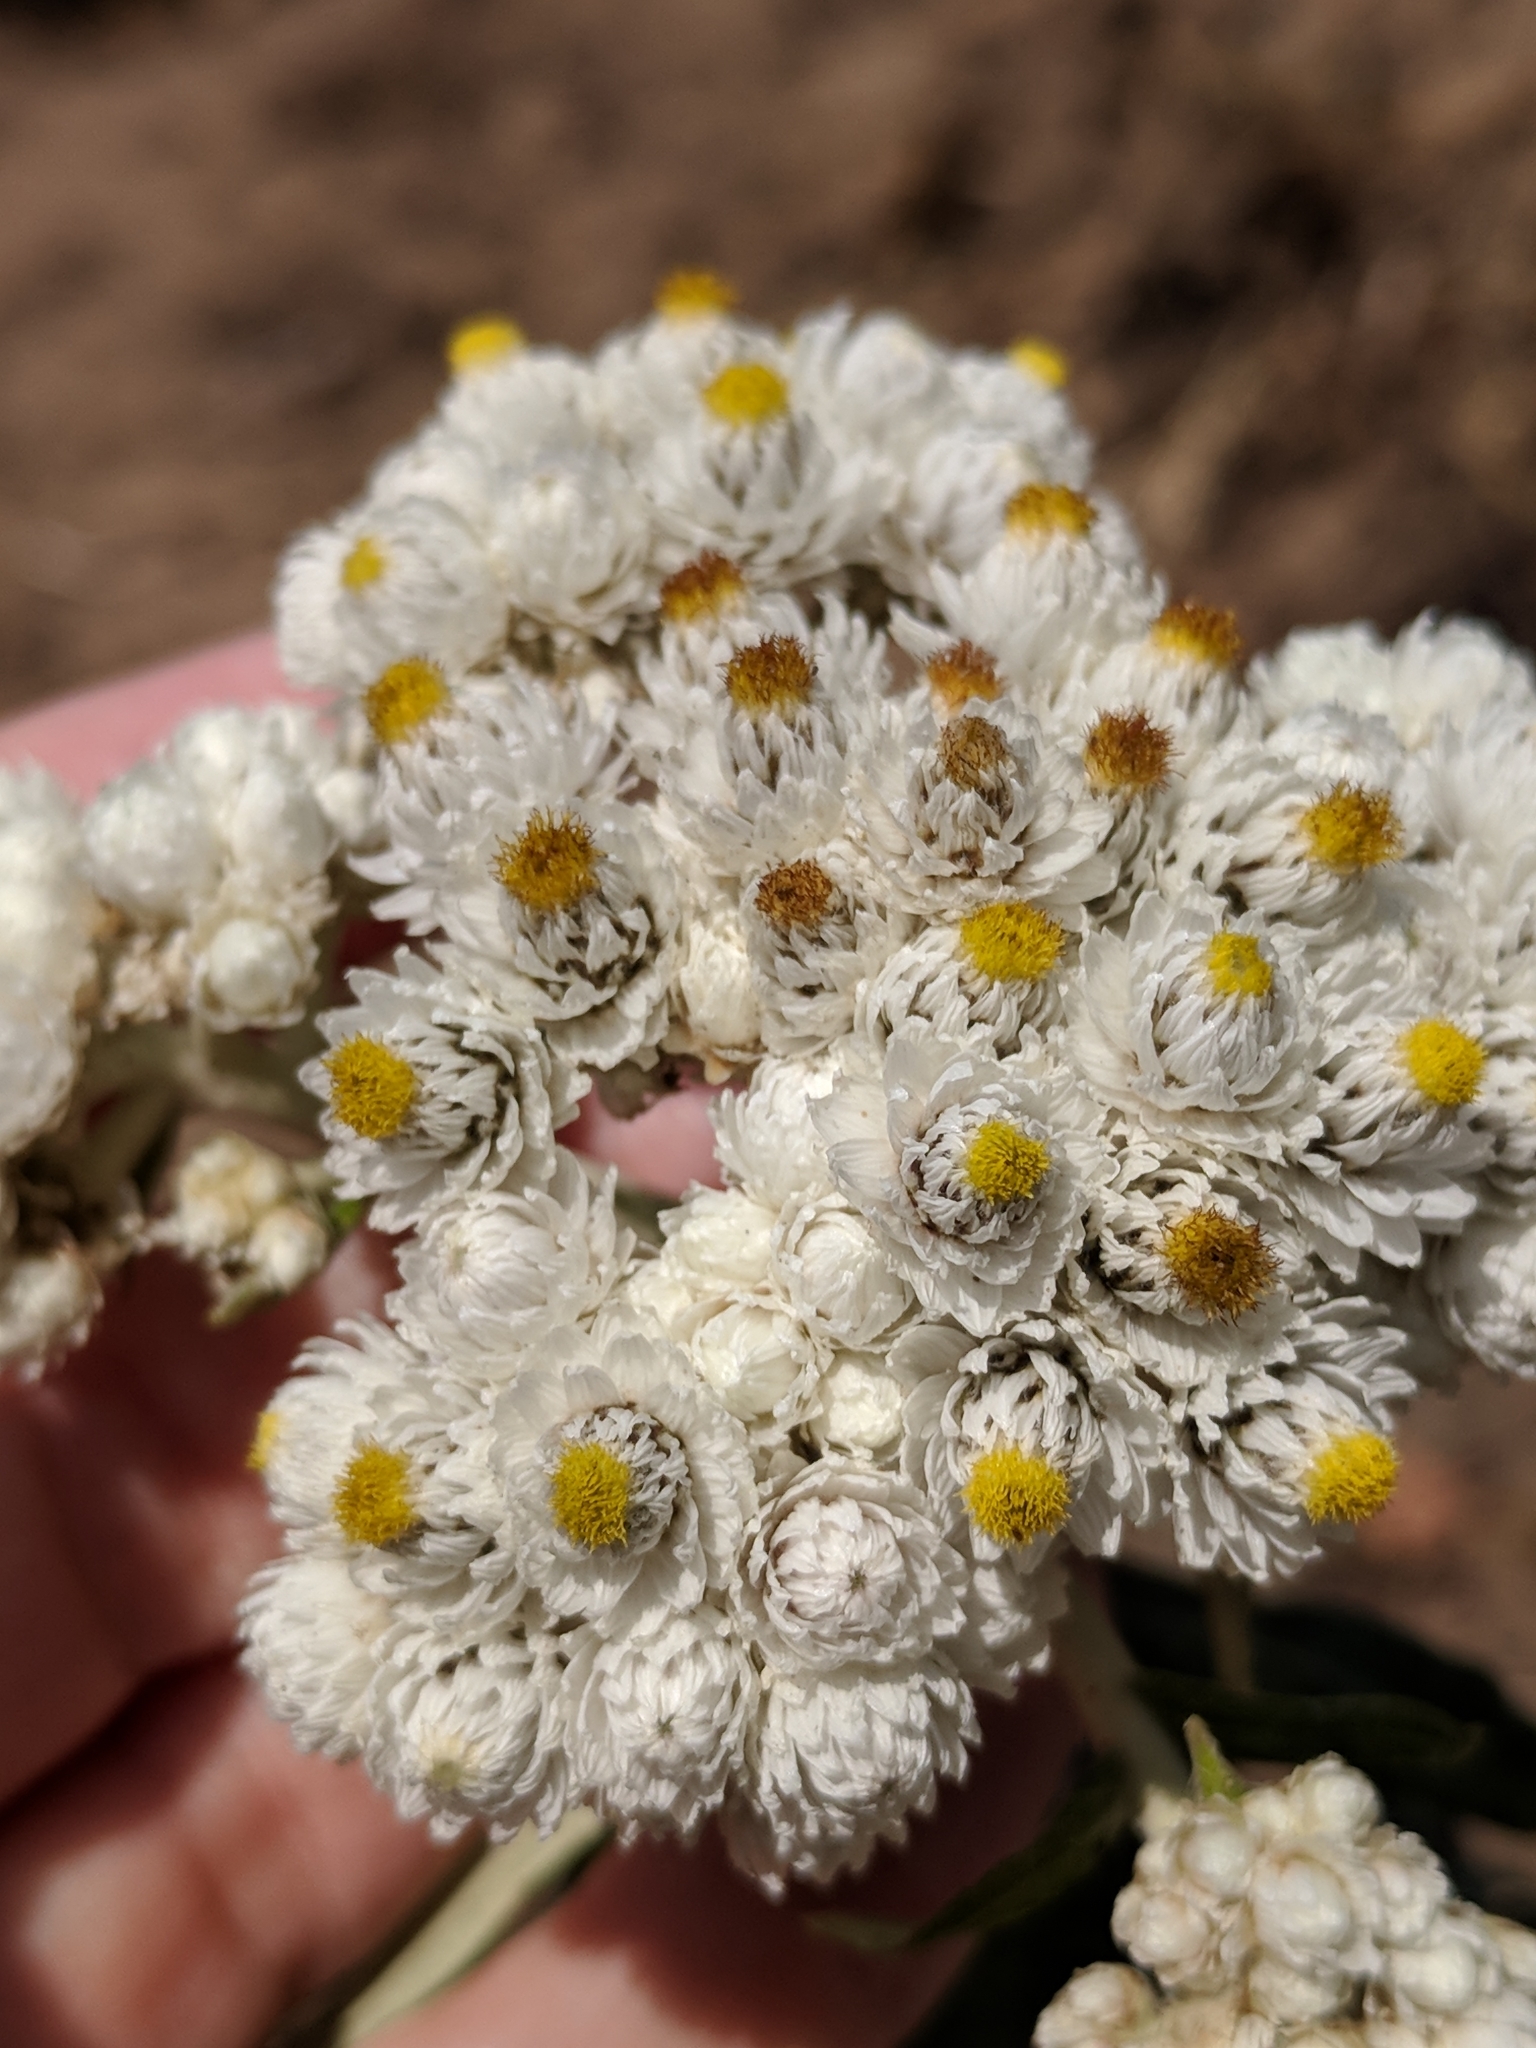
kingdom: Plantae
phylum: Tracheophyta
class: Magnoliopsida
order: Asterales
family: Asteraceae
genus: Anaphalis
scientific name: Anaphalis margaritacea
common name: Pearly everlasting
